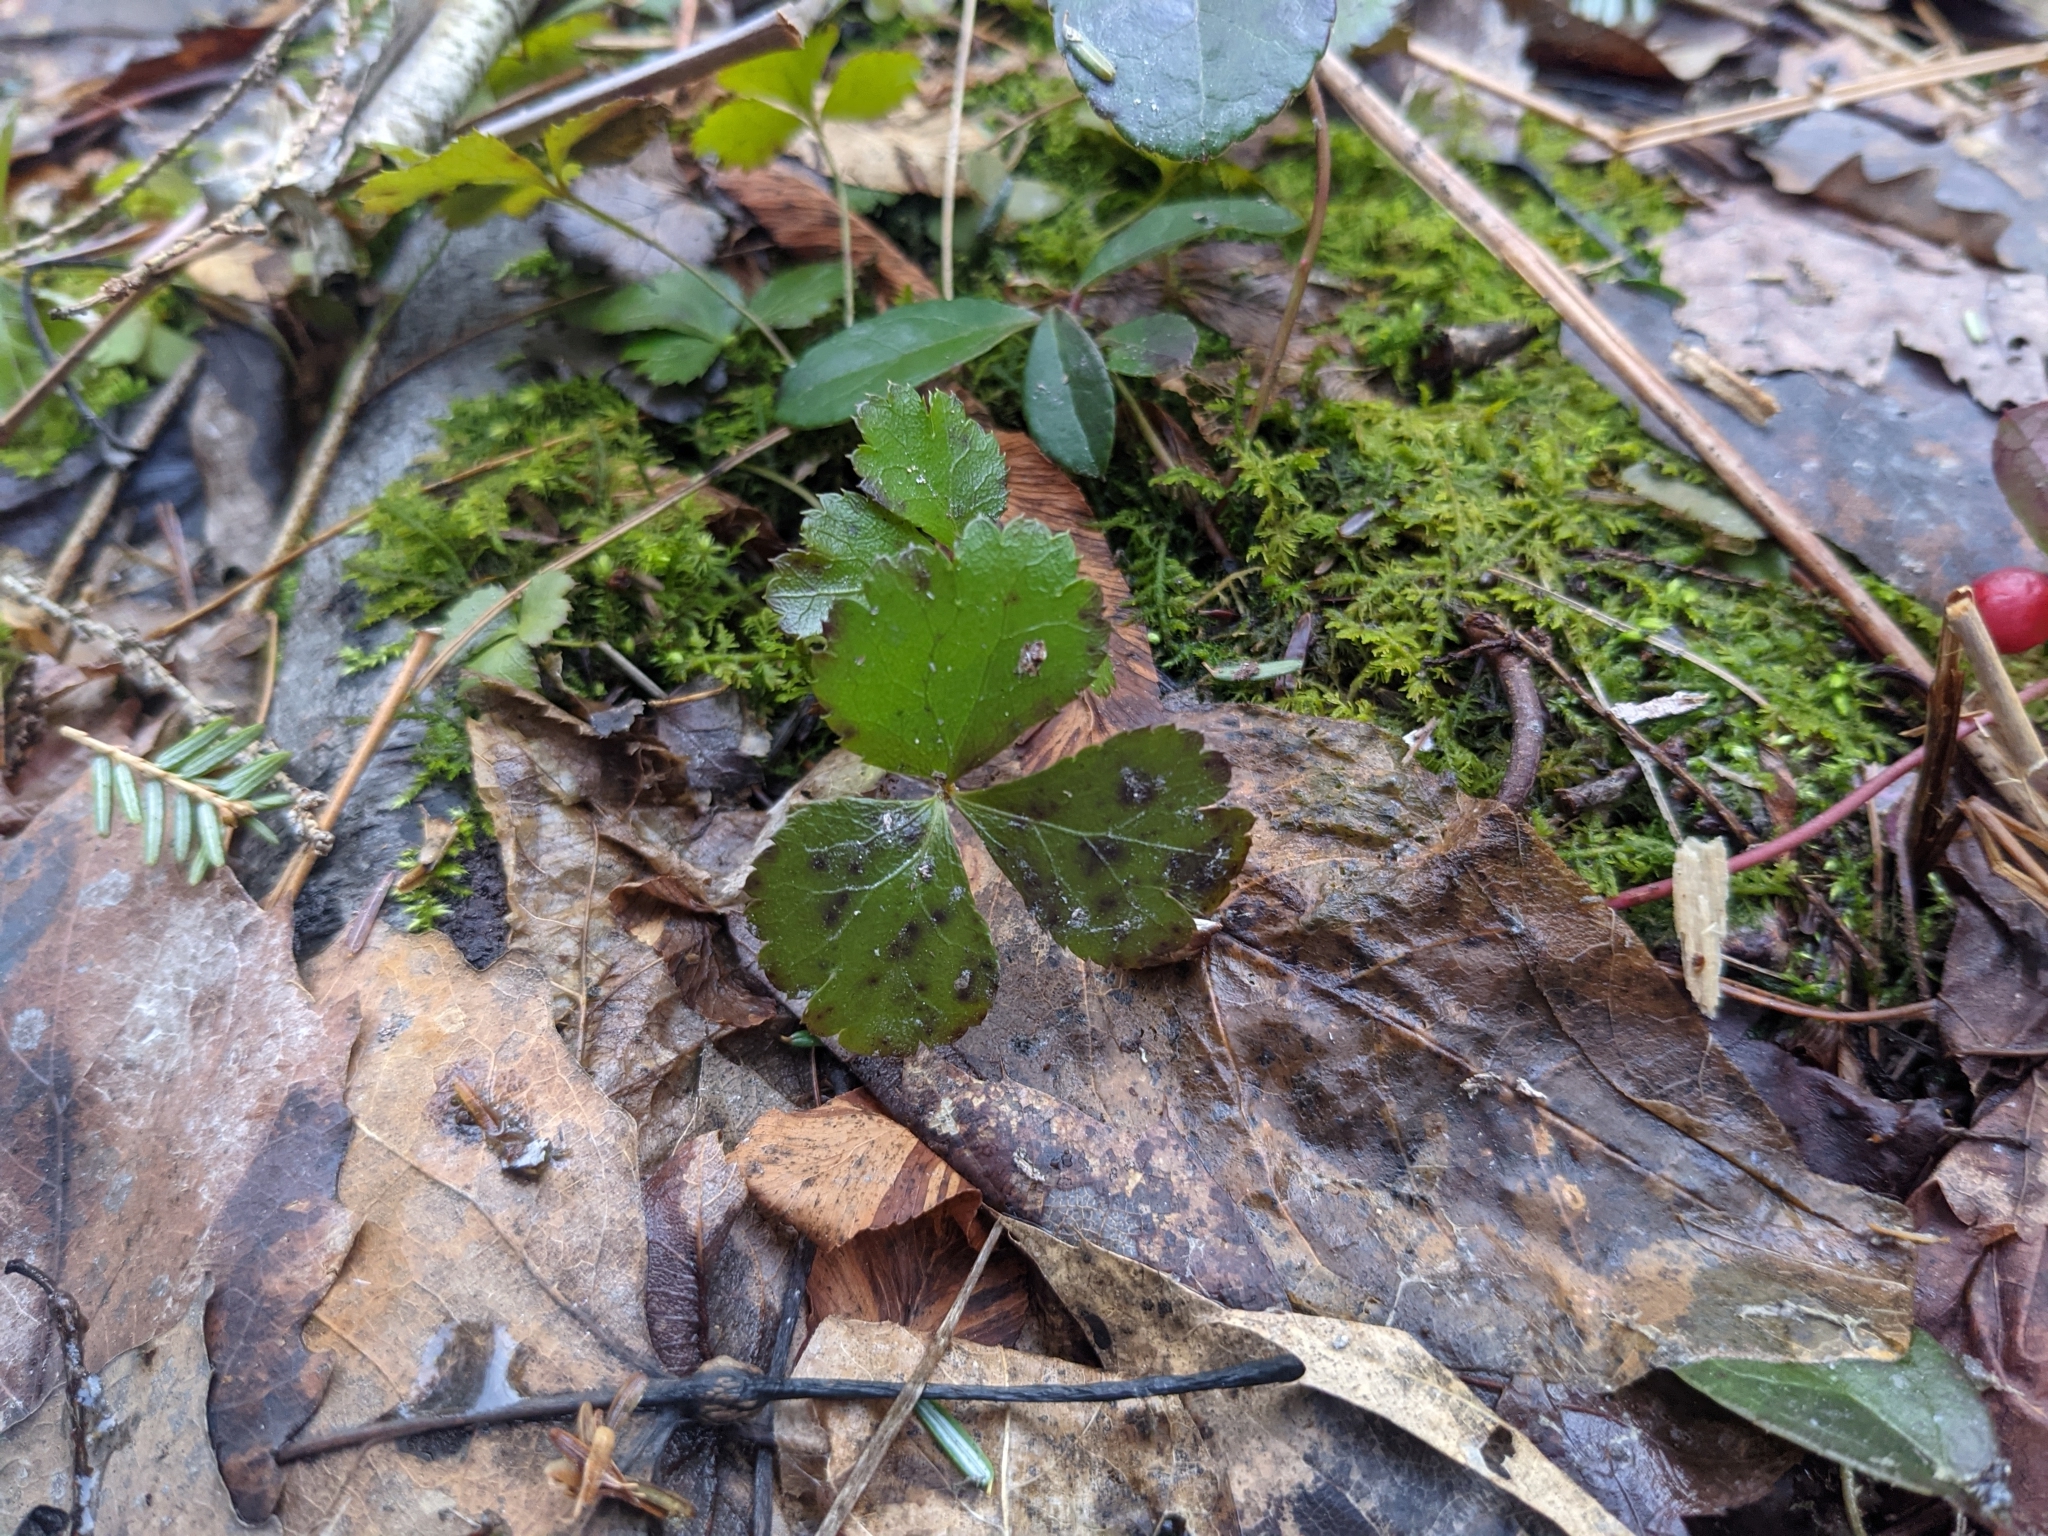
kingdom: Plantae
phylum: Tracheophyta
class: Magnoliopsida
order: Ranunculales
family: Ranunculaceae
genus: Coptis
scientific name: Coptis trifolia
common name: Canker-root
